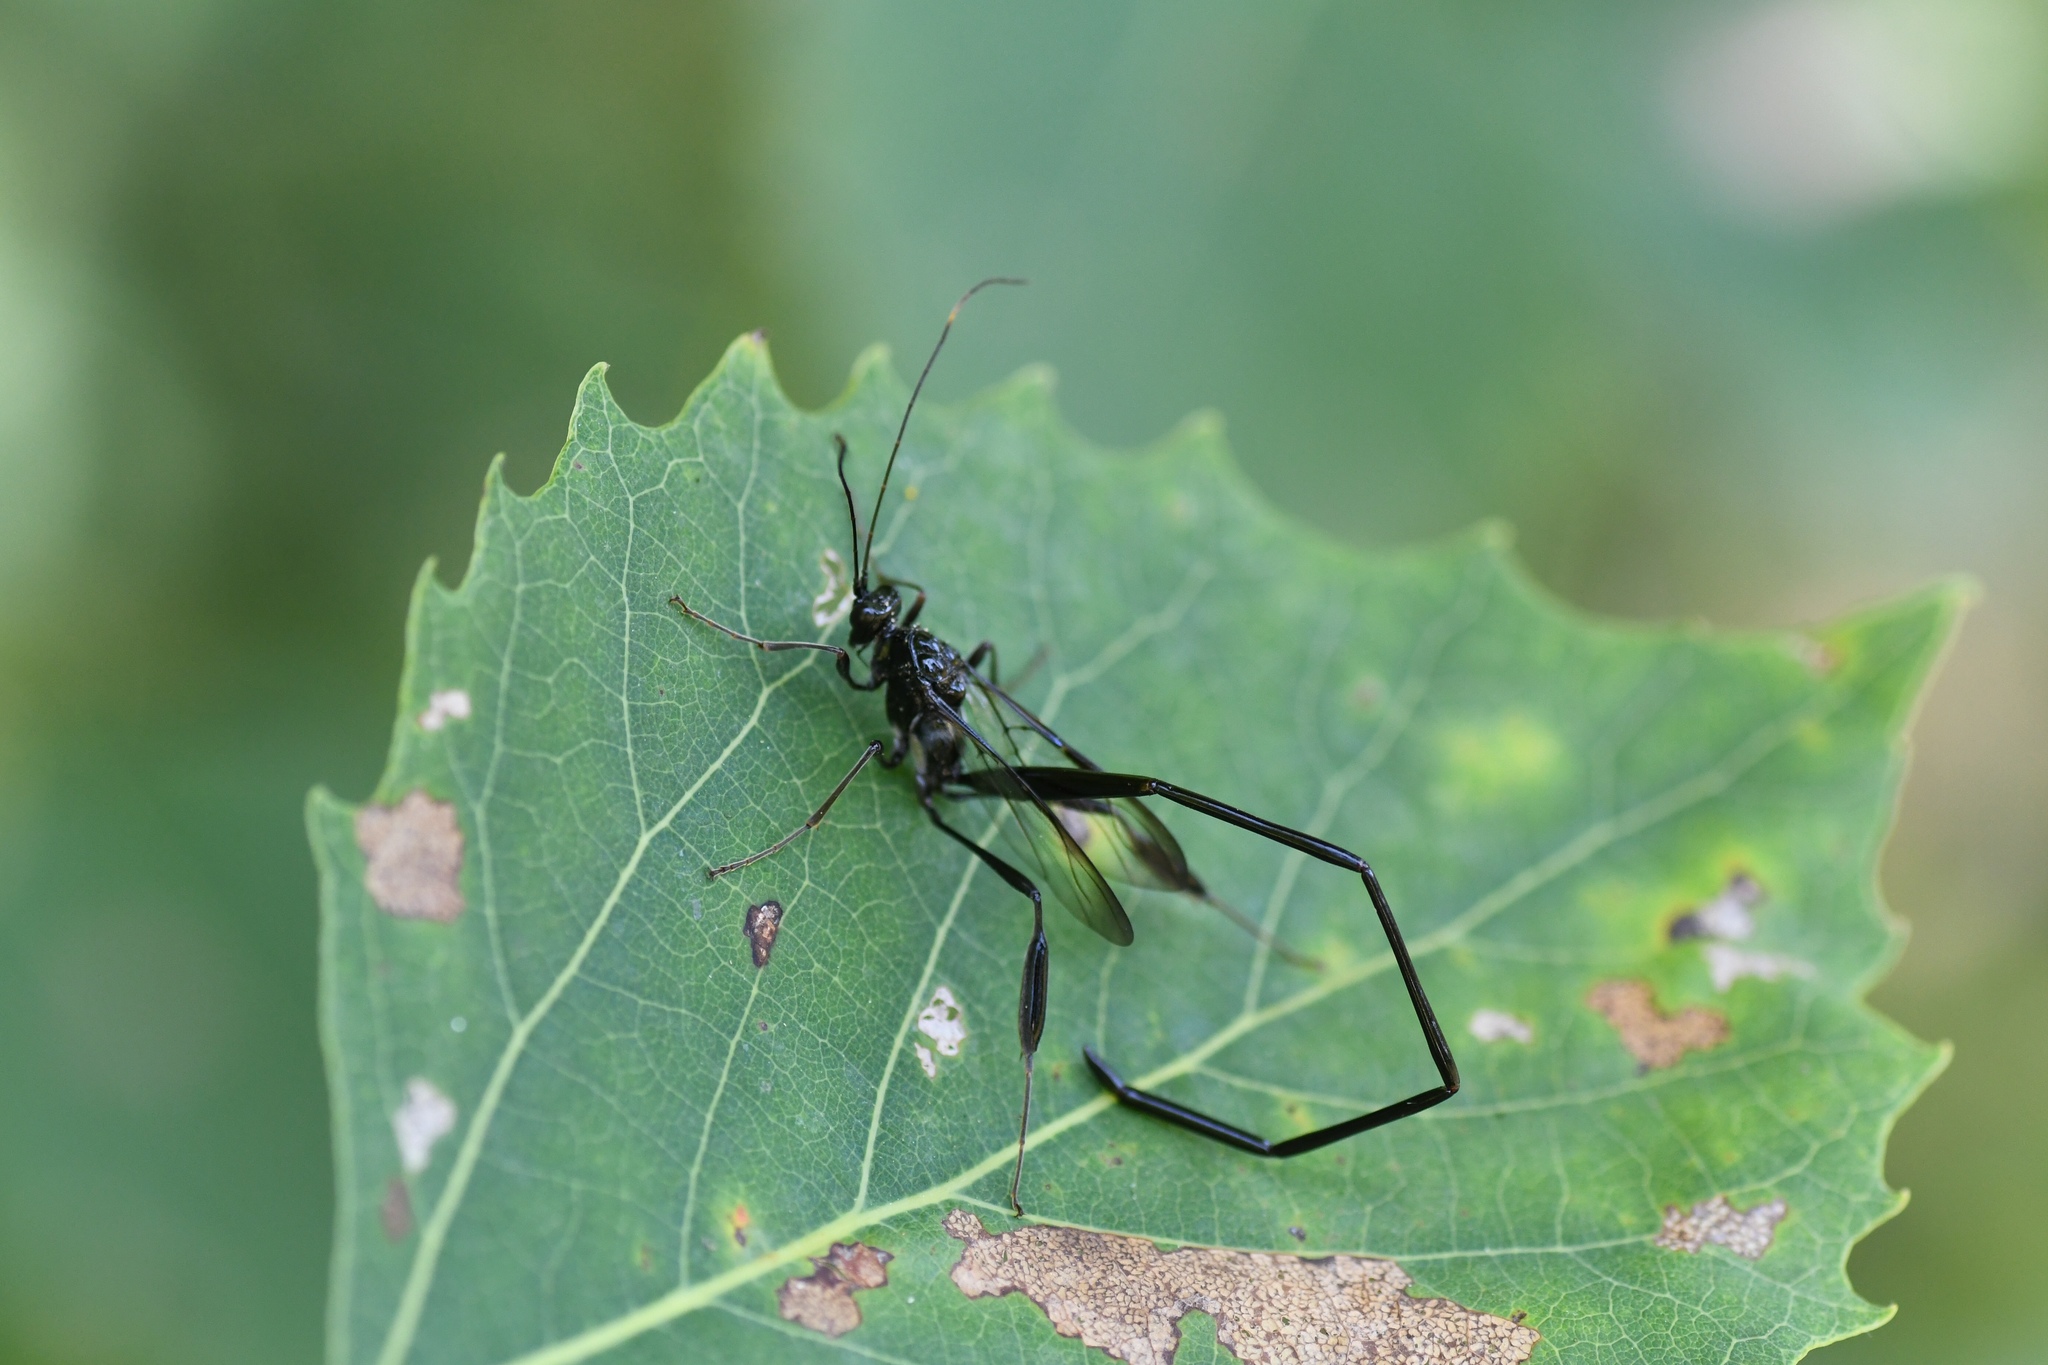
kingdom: Animalia
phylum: Arthropoda
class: Insecta
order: Hymenoptera
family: Pelecinidae
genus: Pelecinus
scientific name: Pelecinus polyturator
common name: American pelecinid wasp
